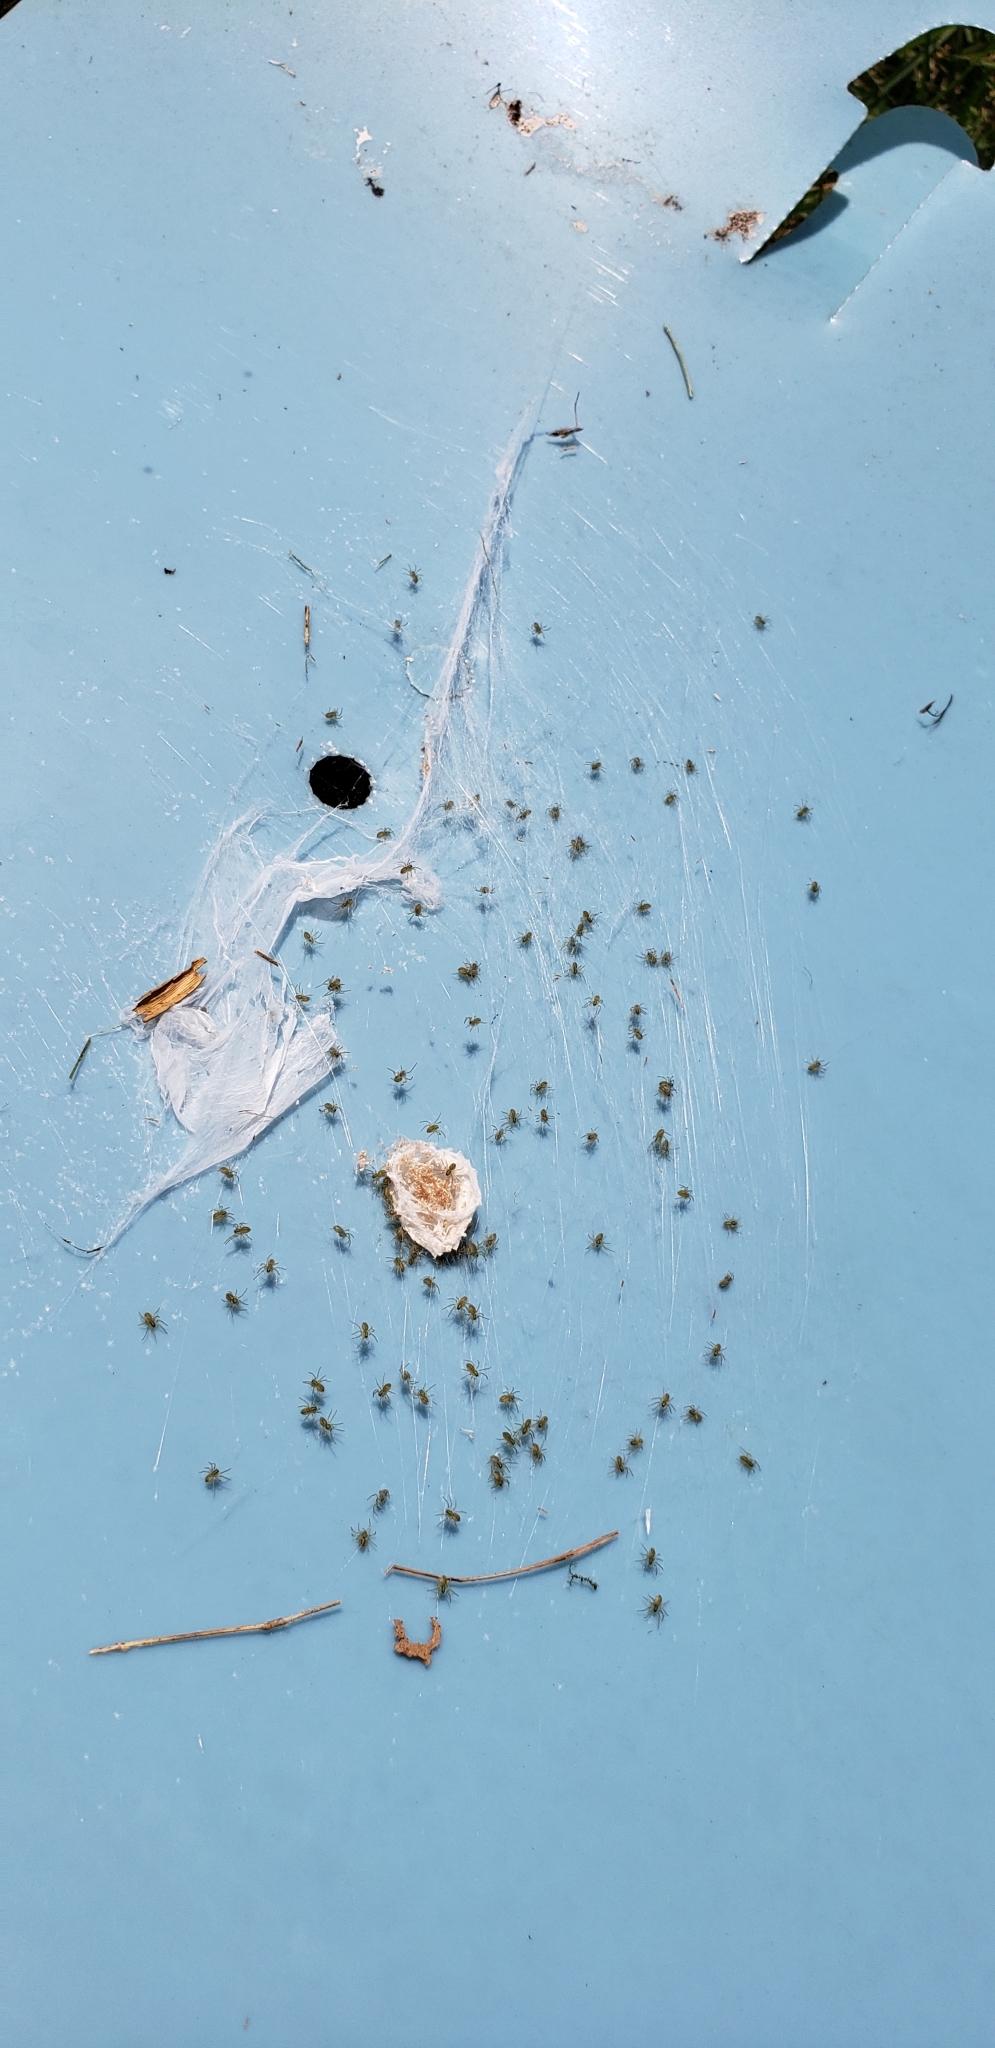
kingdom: Animalia
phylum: Arthropoda
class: Arachnida
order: Araneae
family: Pisauridae
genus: Pisaurina
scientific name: Pisaurina mira
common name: American nursery web spider
